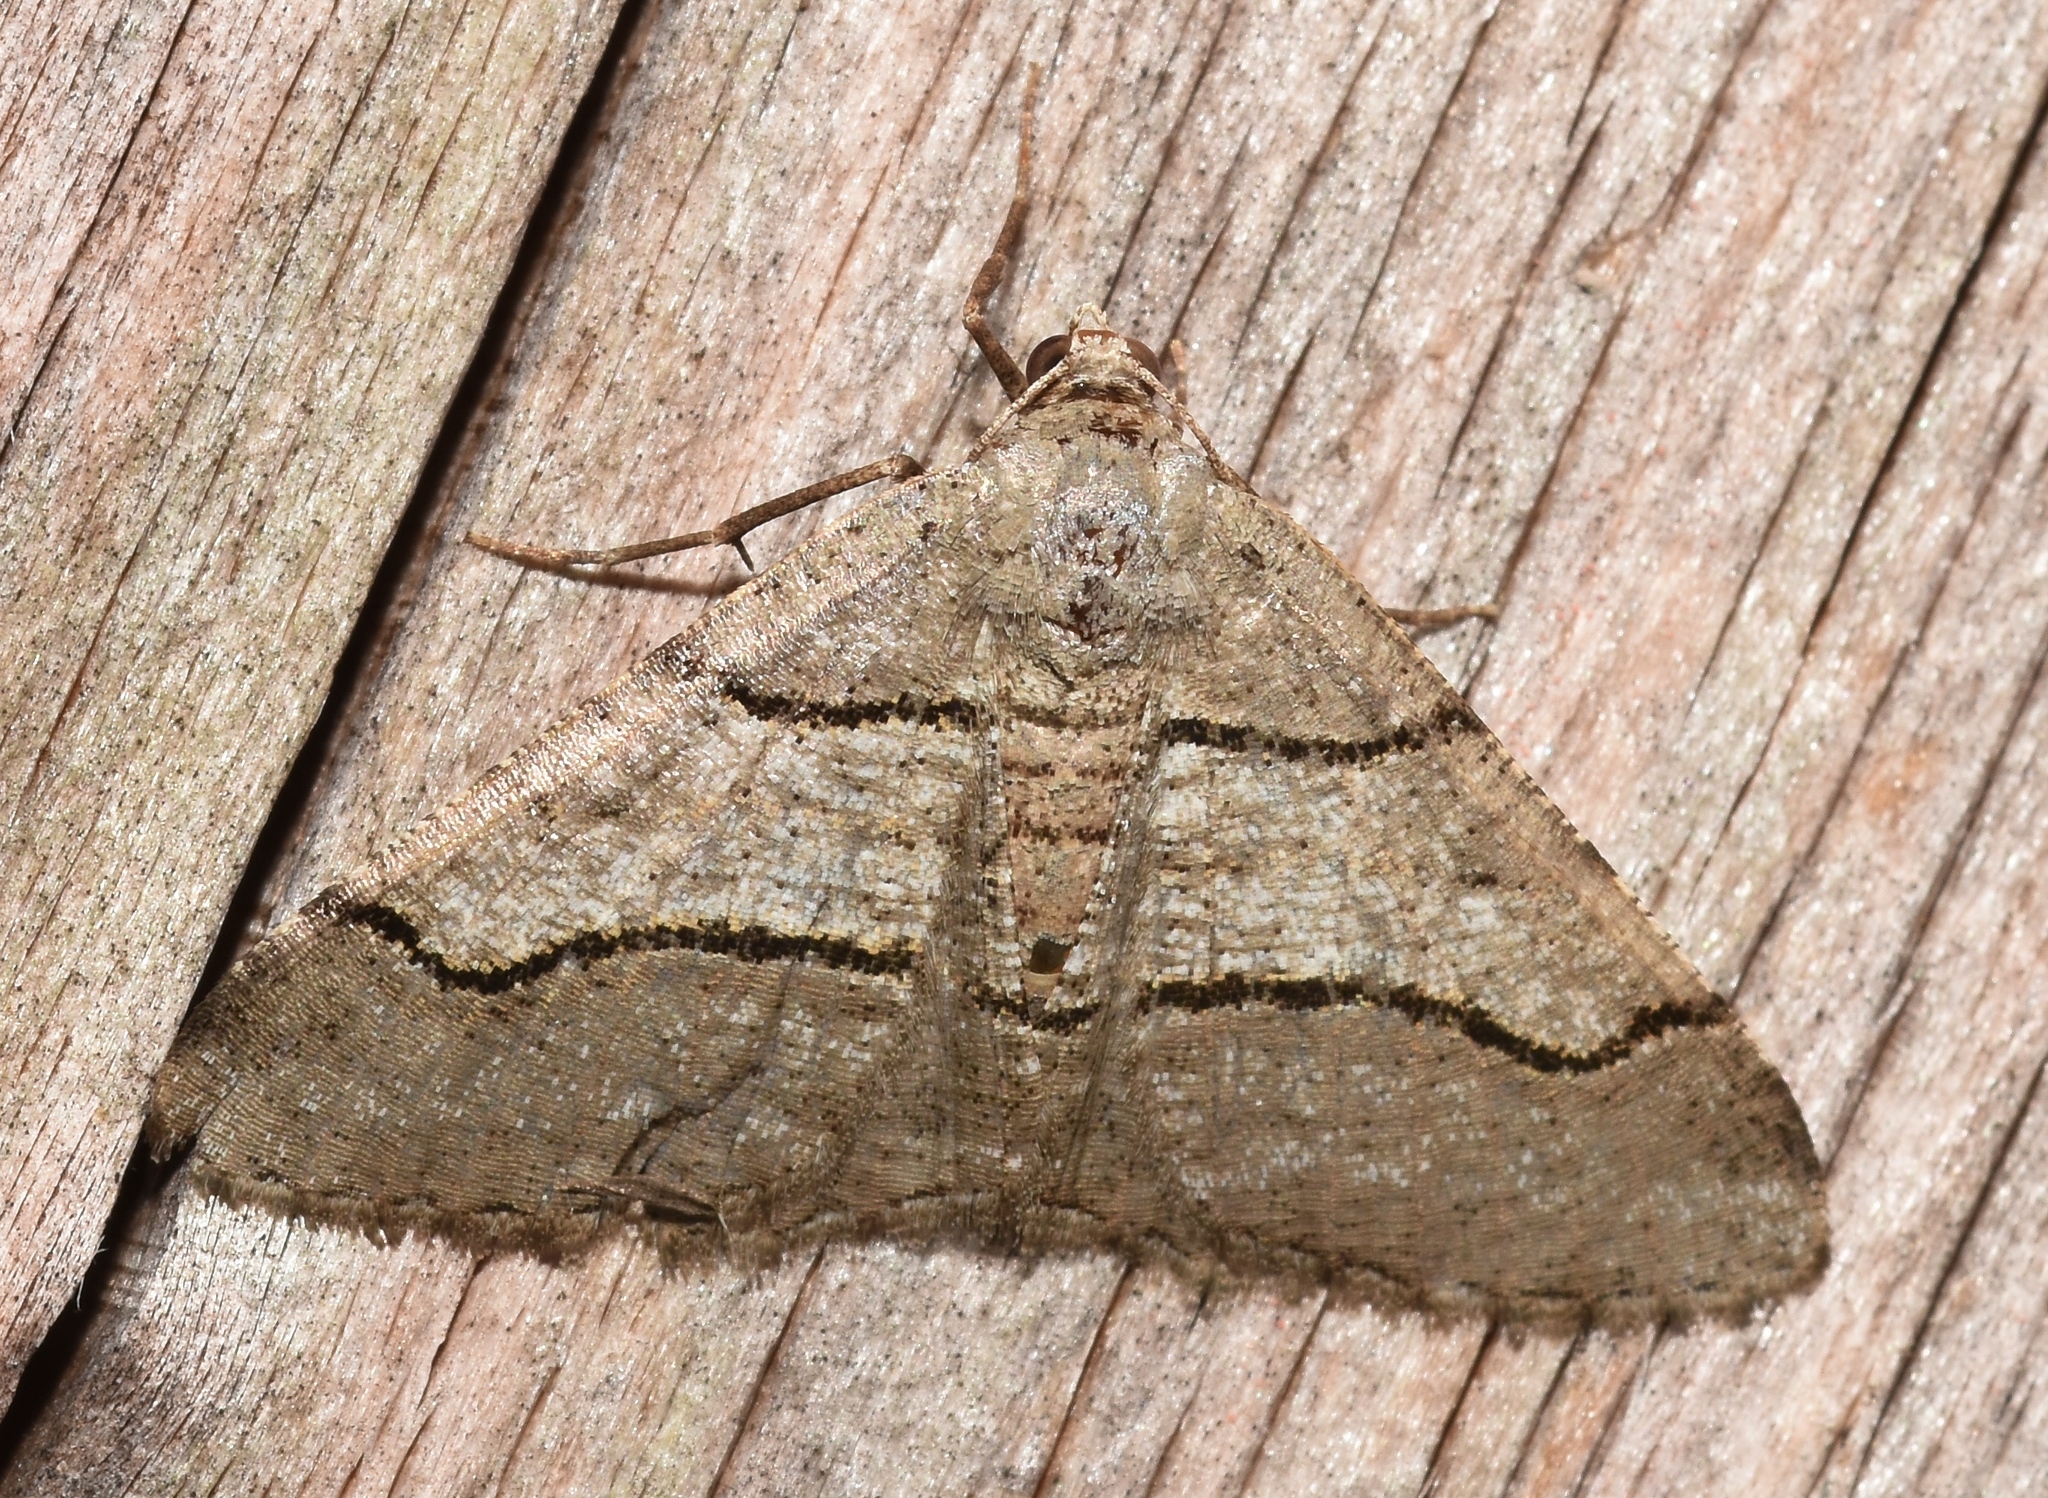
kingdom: Animalia
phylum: Arthropoda
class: Insecta
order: Lepidoptera
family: Geometridae
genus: Digrammia
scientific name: Digrammia continuata
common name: Curve-lined angle
